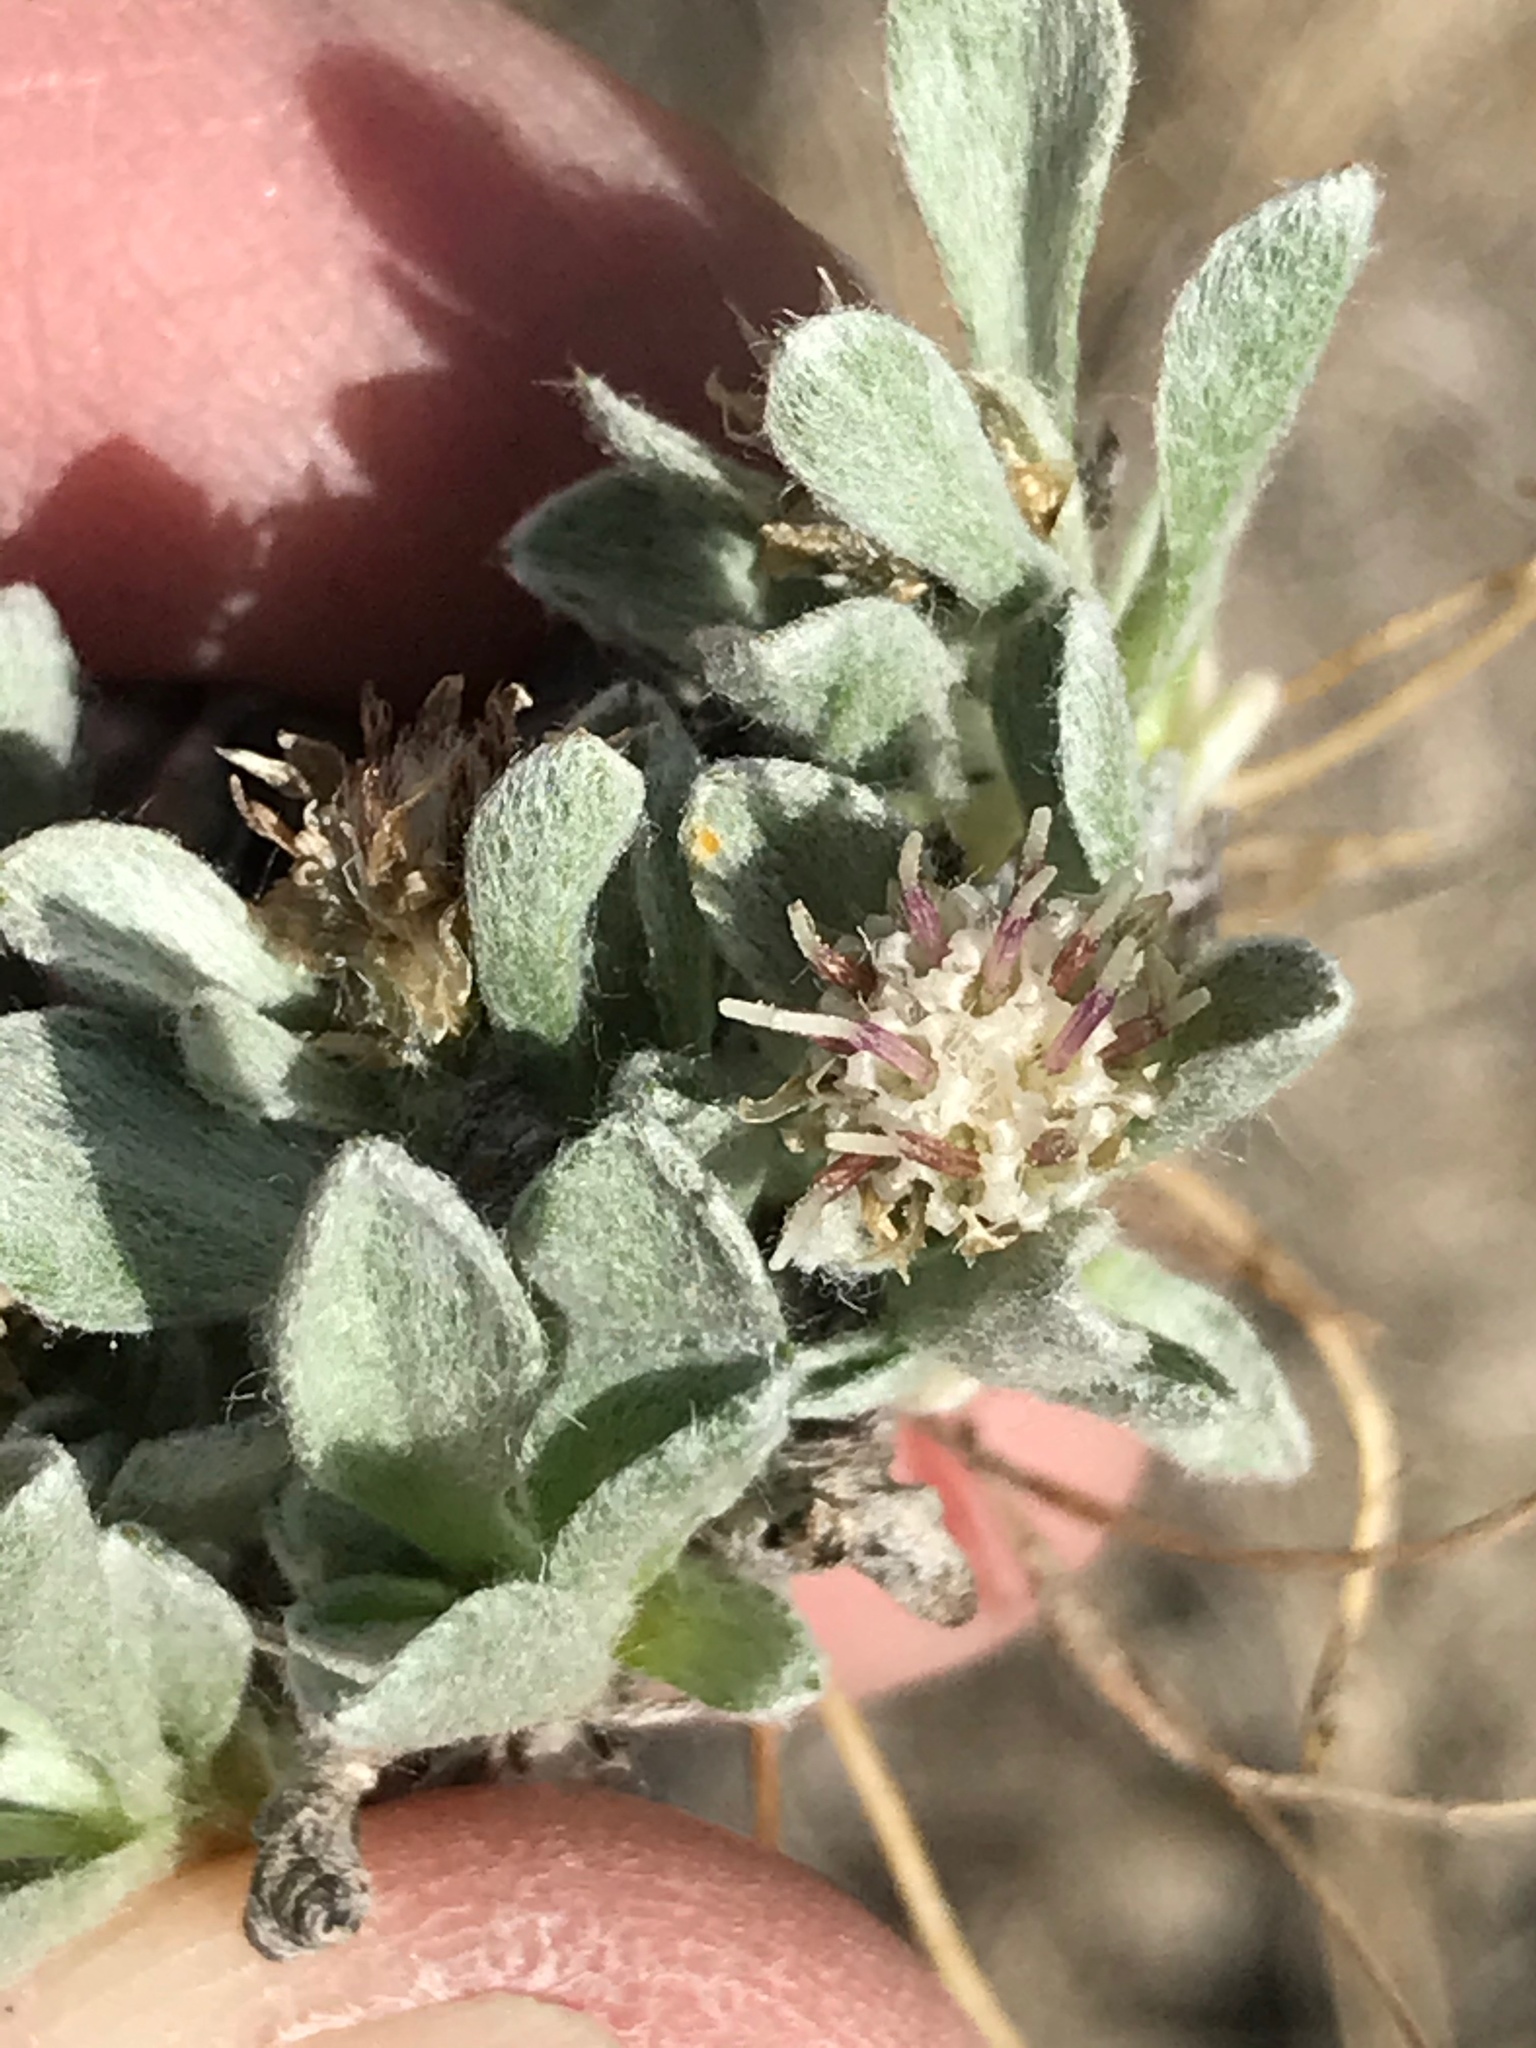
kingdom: Plantae
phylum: Tracheophyta
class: Magnoliopsida
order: Asterales
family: Asteraceae
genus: Antennaria
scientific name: Antennaria dimorpha
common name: Cushion pussytoes
